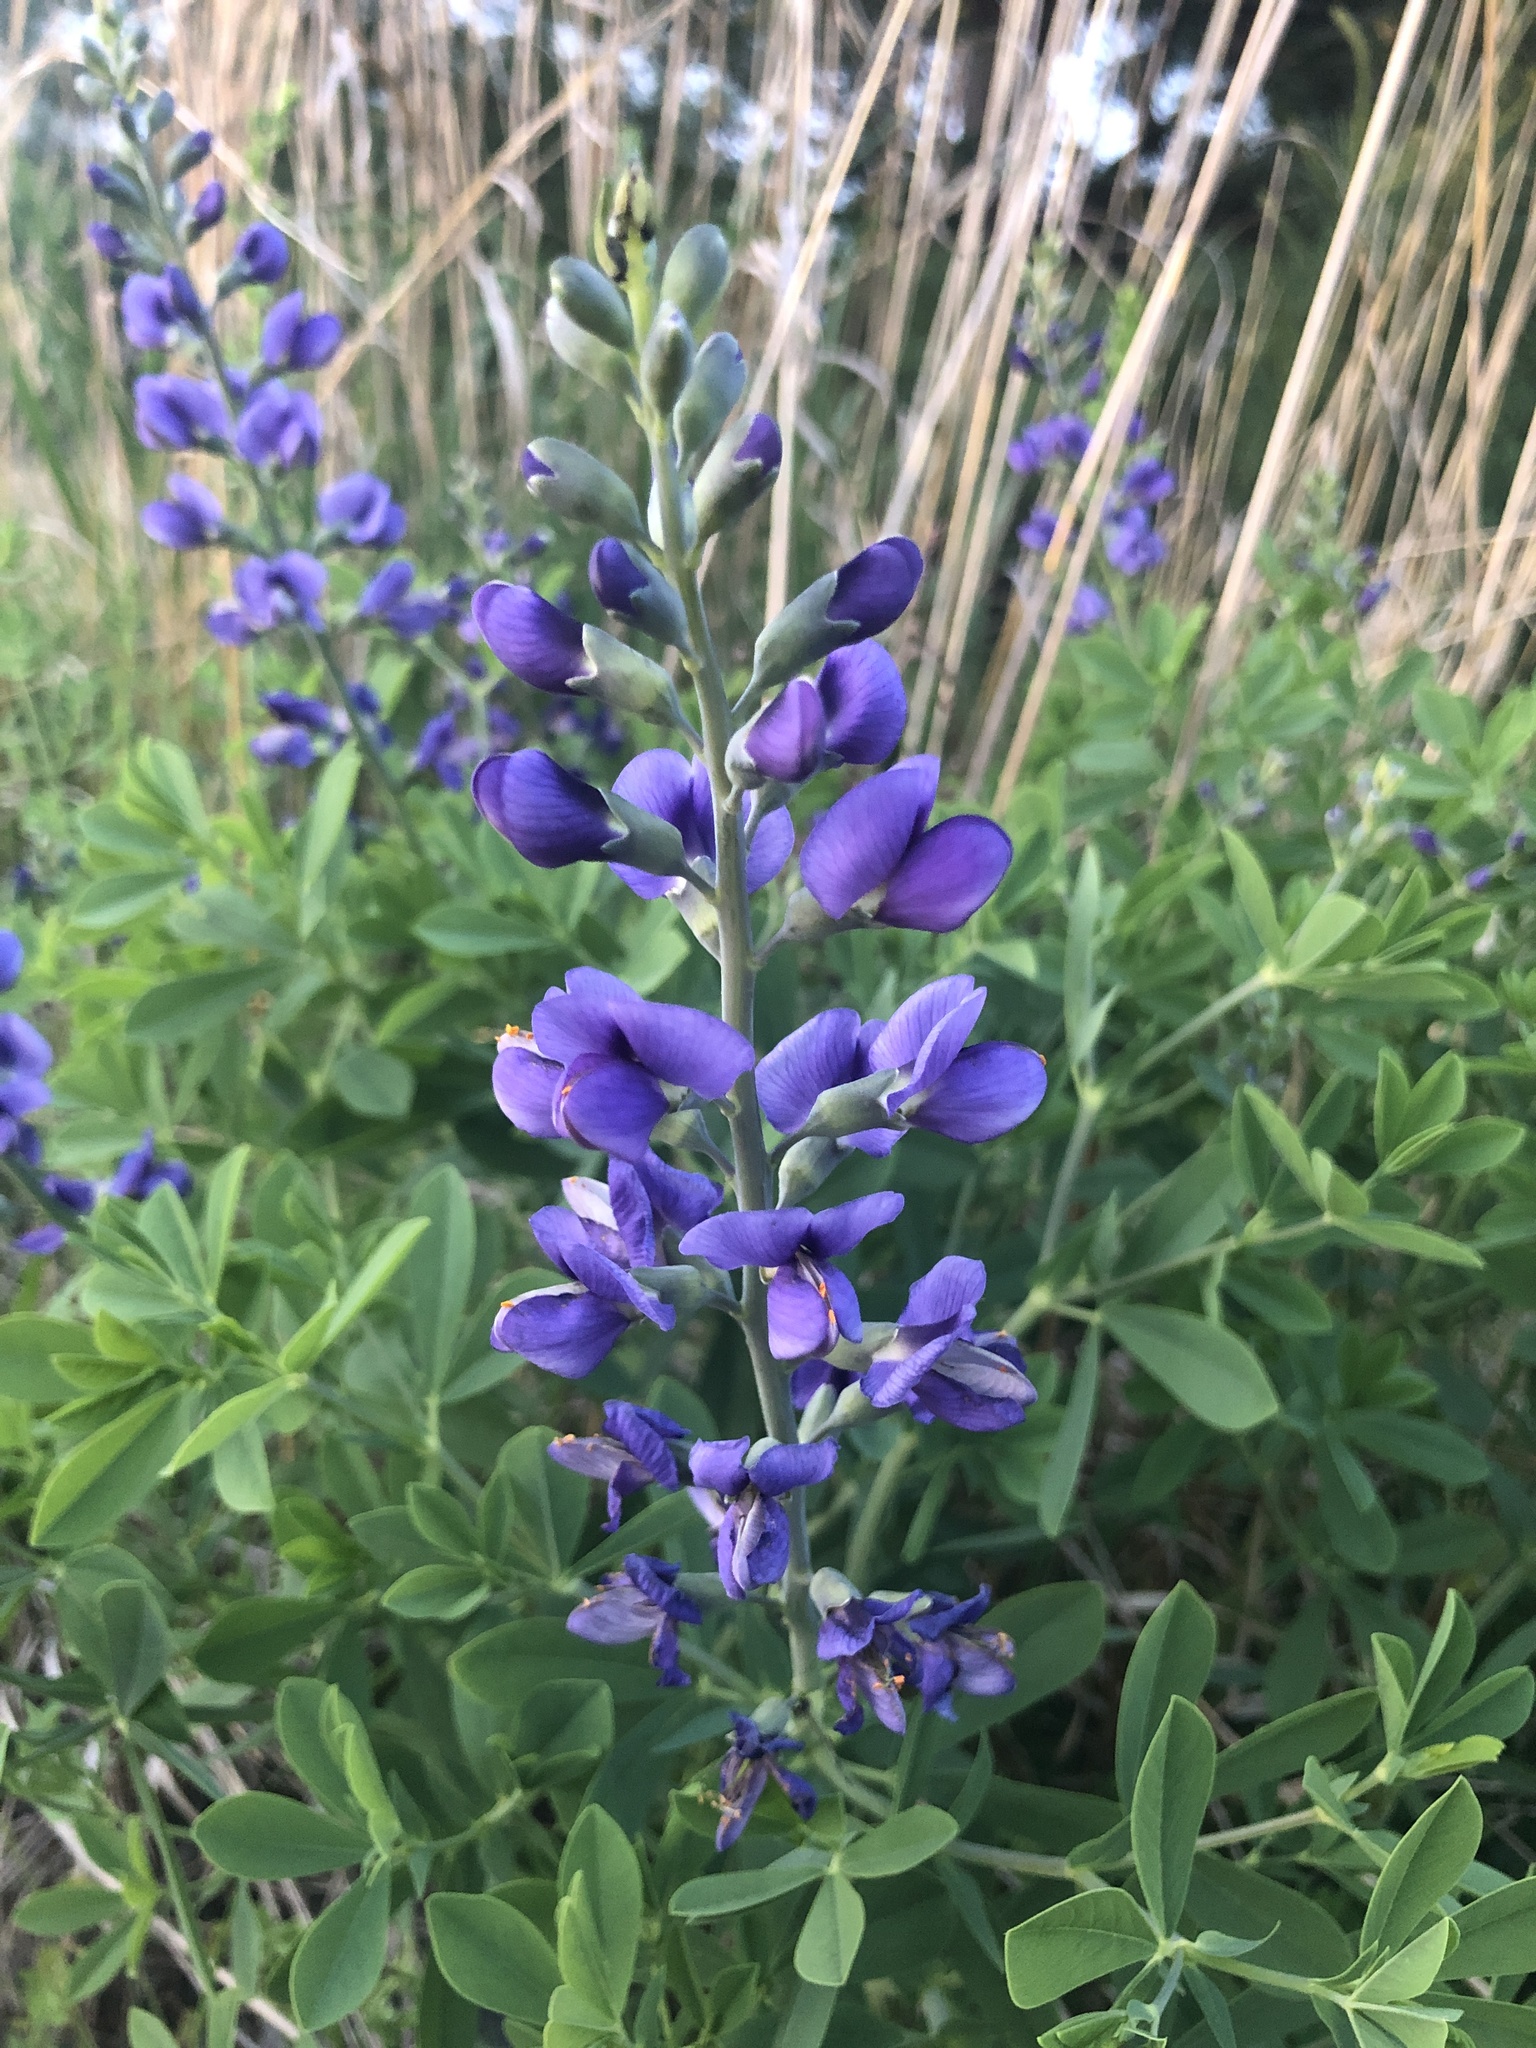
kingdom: Plantae
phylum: Tracheophyta
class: Magnoliopsida
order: Fabales
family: Fabaceae
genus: Baptisia
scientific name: Baptisia australis
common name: Blue false indigo
